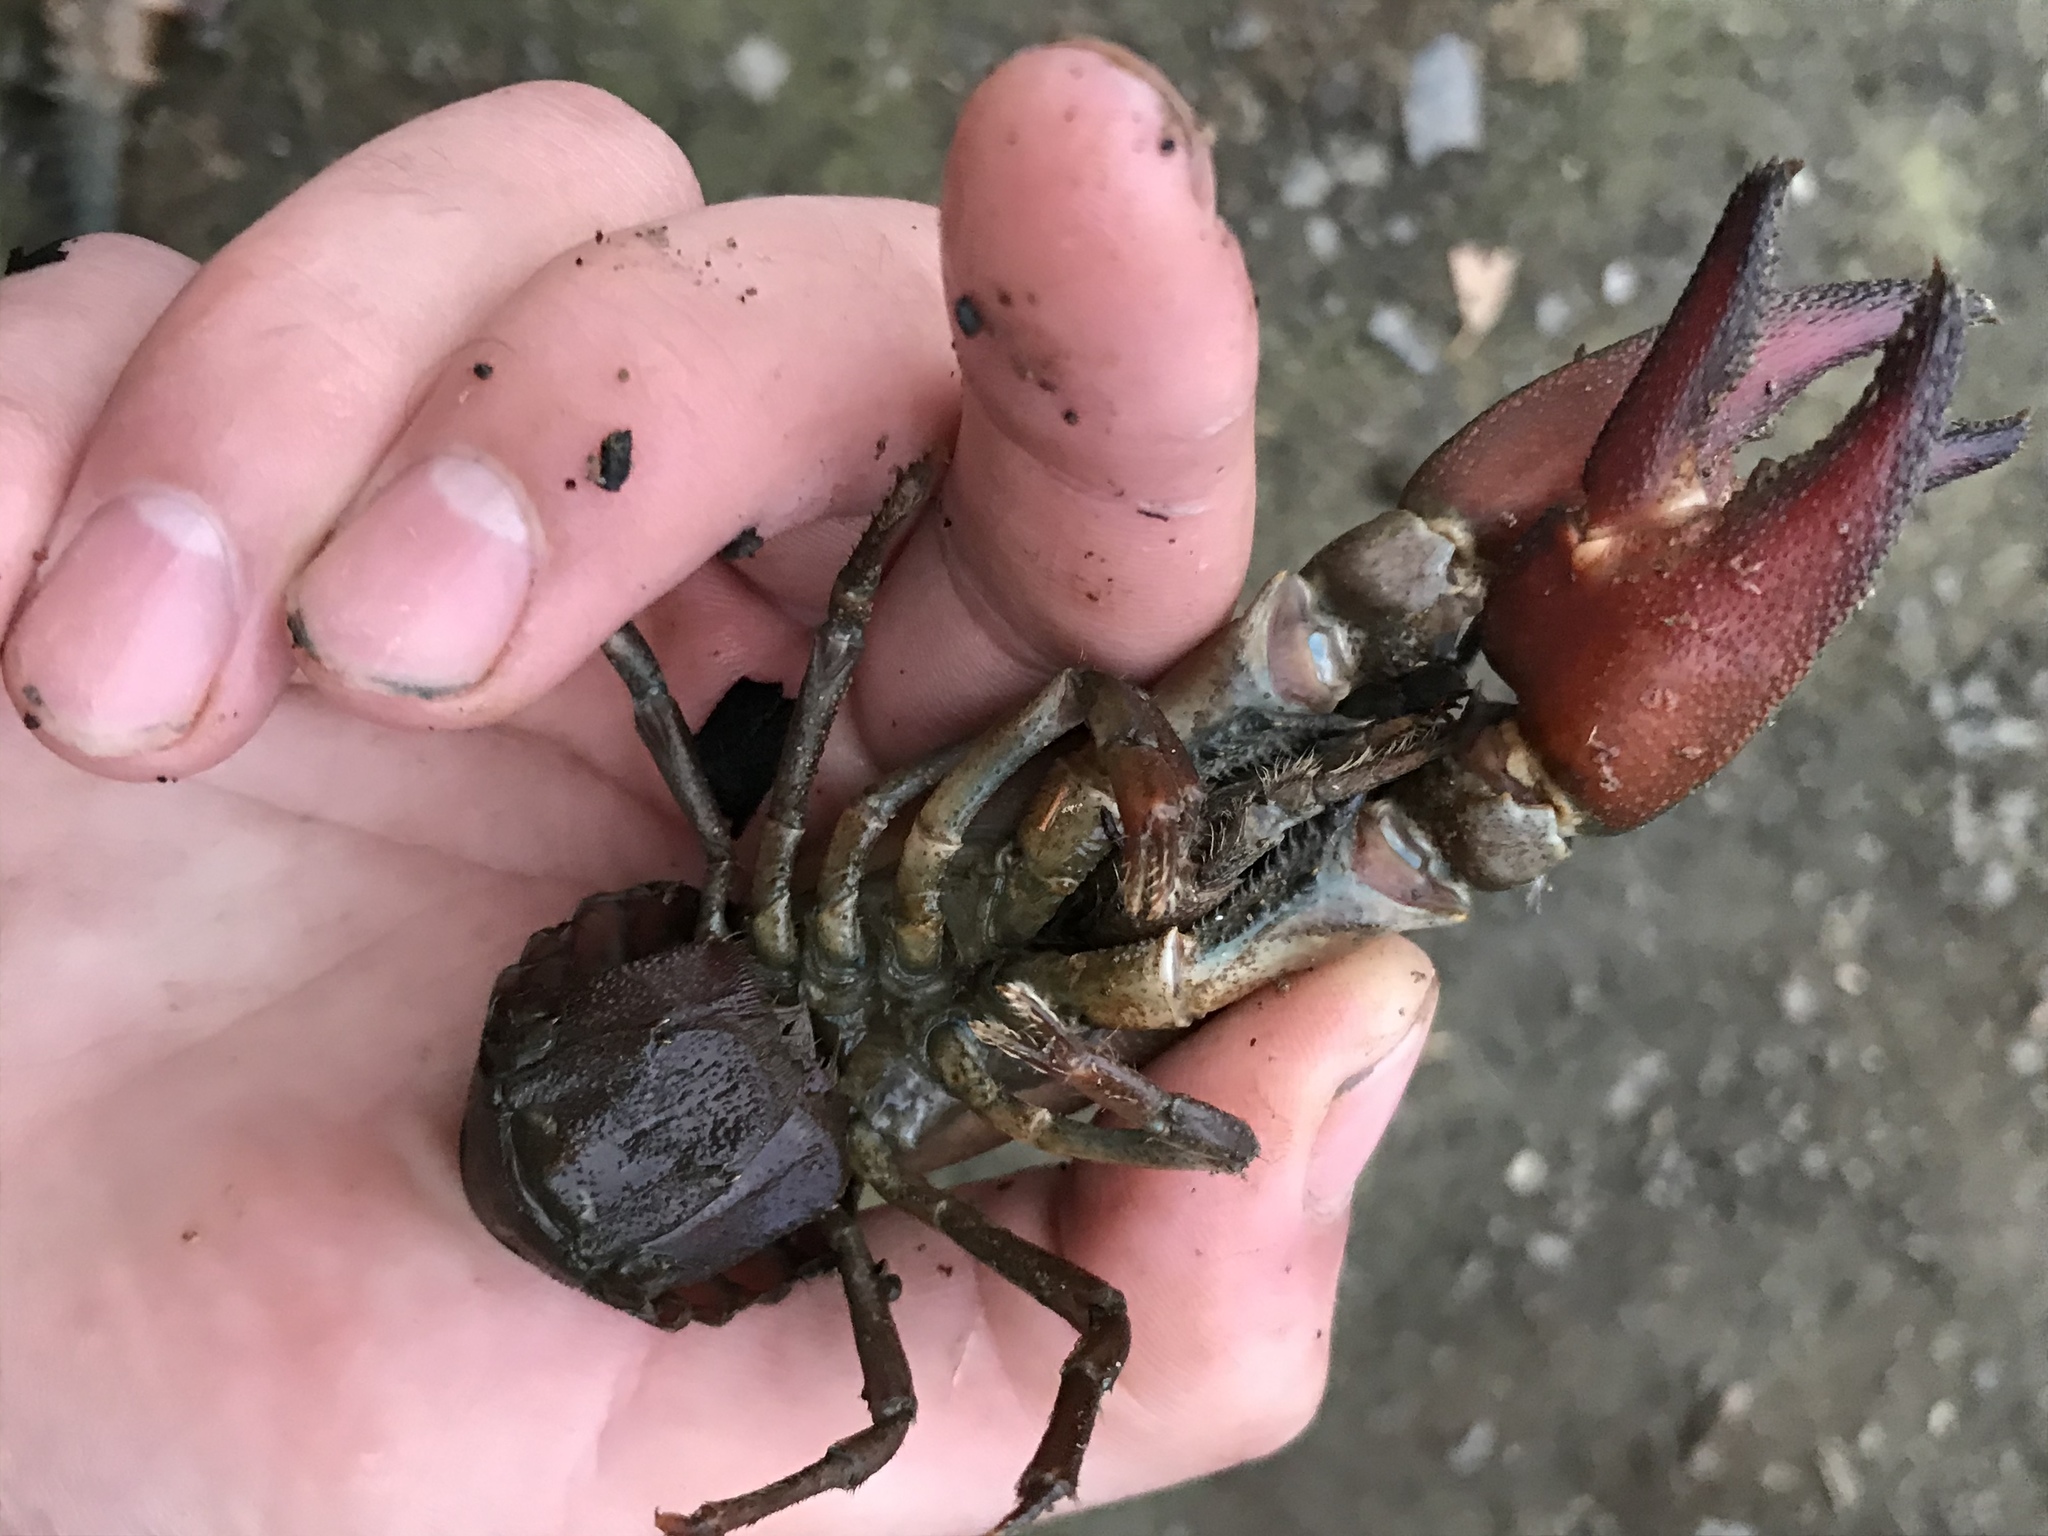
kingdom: Animalia
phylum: Arthropoda
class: Malacostraca
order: Decapoda
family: Astacidae
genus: Pacifastacus
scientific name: Pacifastacus leniusculus
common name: Signal crayfish
